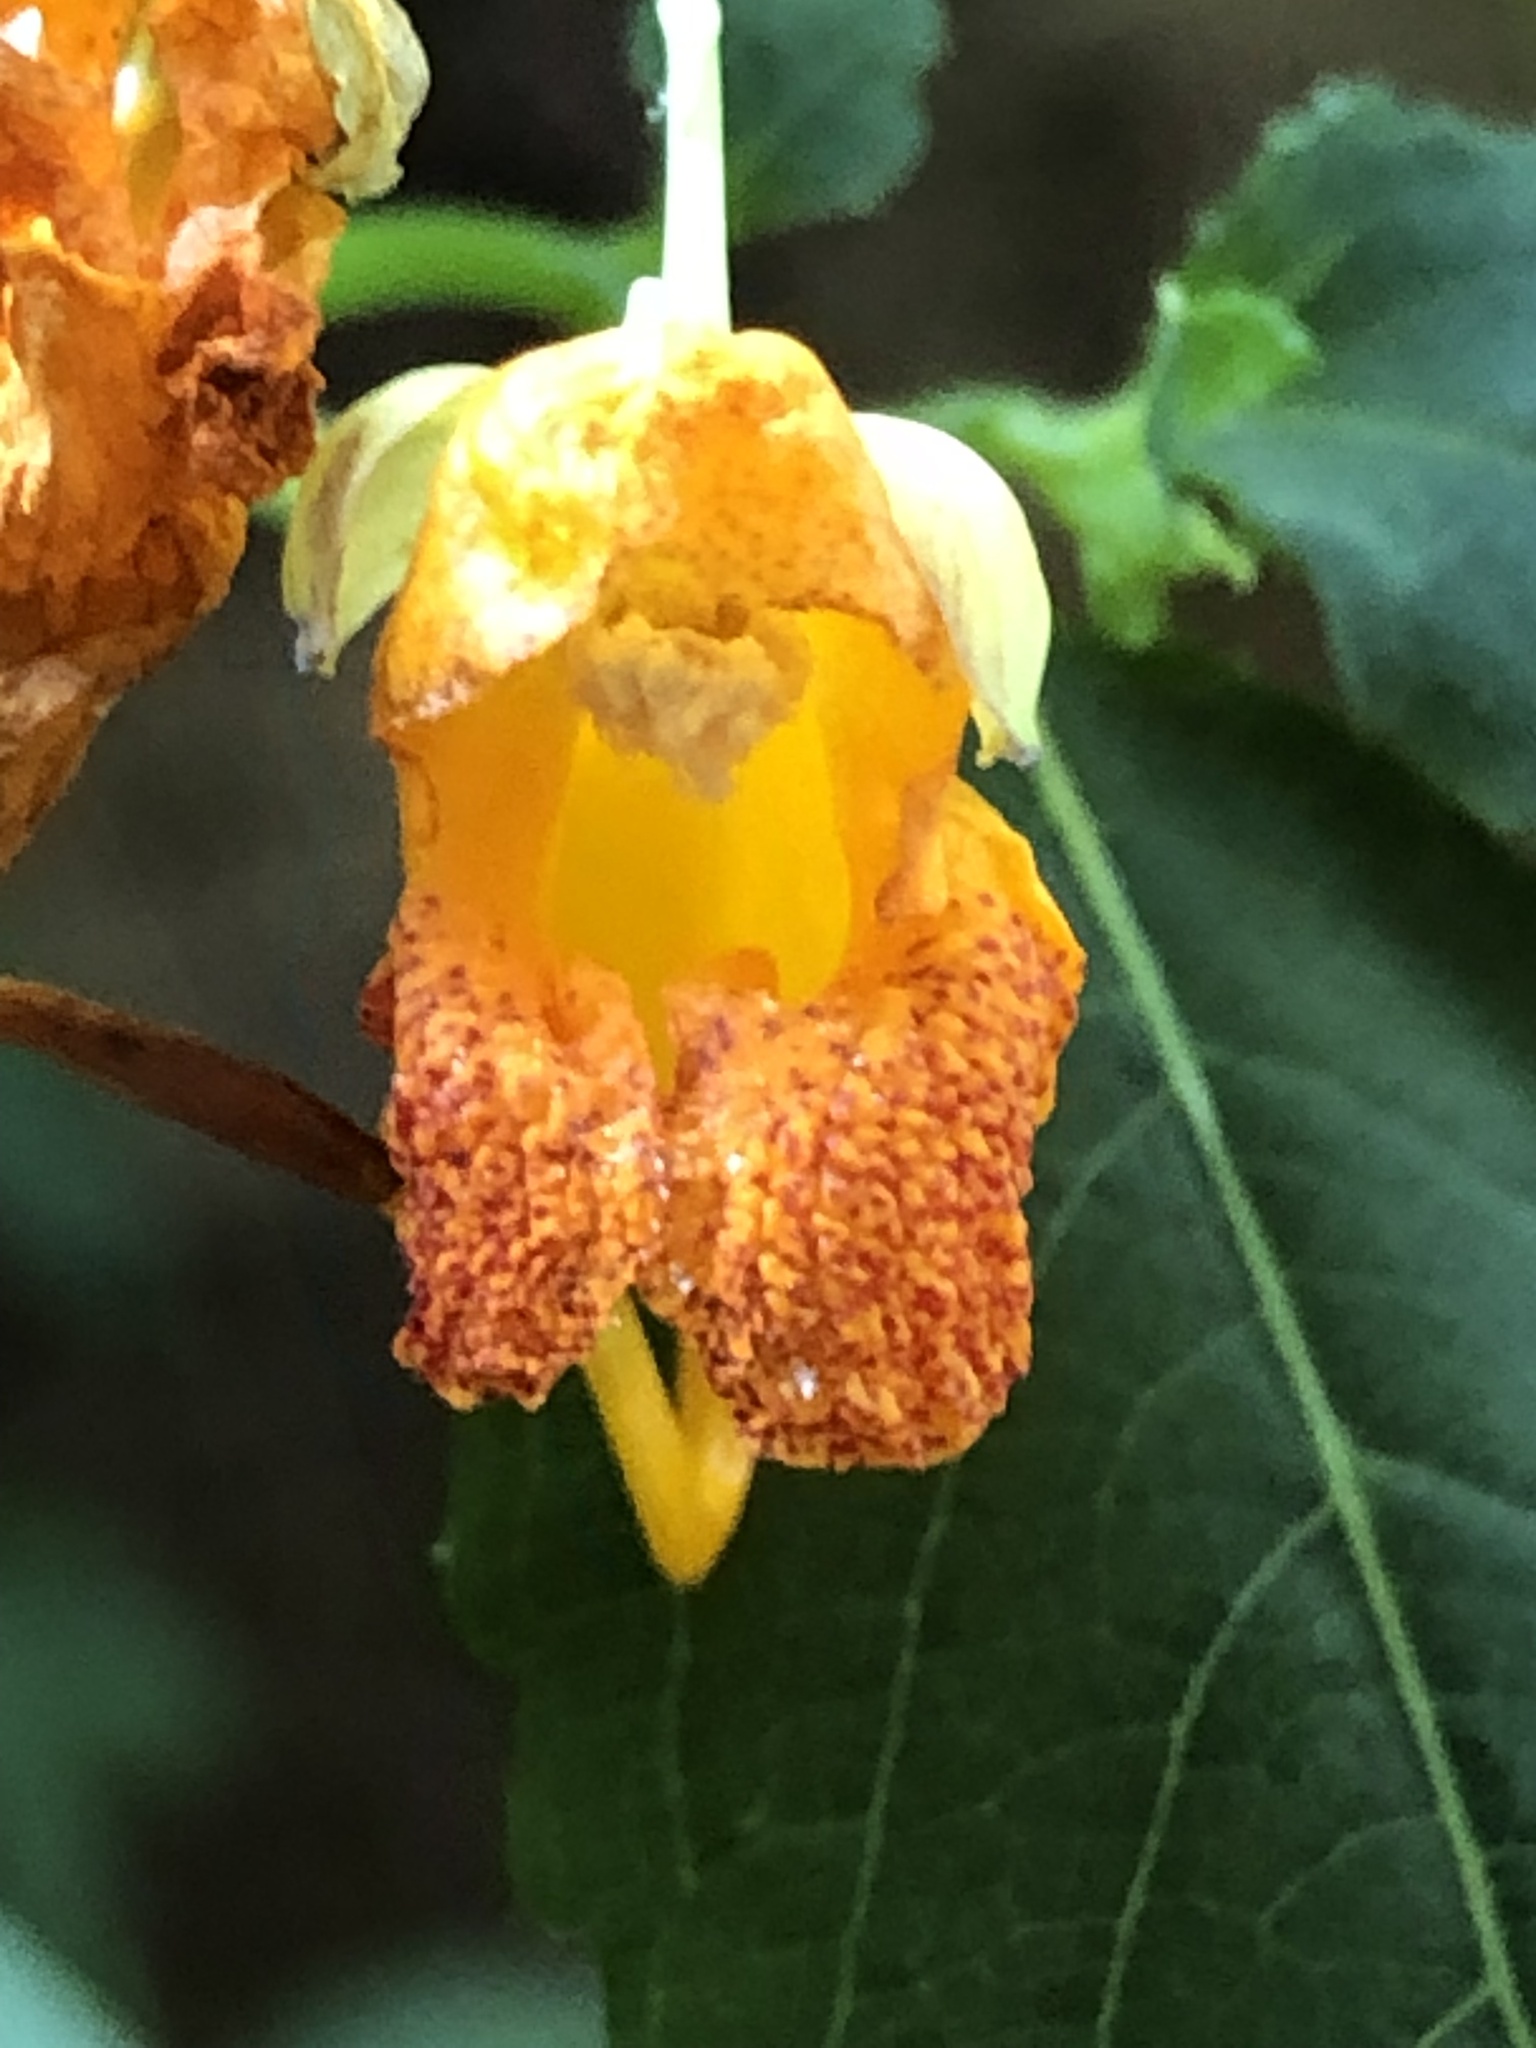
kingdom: Plantae
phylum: Tracheophyta
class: Magnoliopsida
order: Ericales
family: Balsaminaceae
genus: Impatiens
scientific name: Impatiens capensis
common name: Orange balsam
